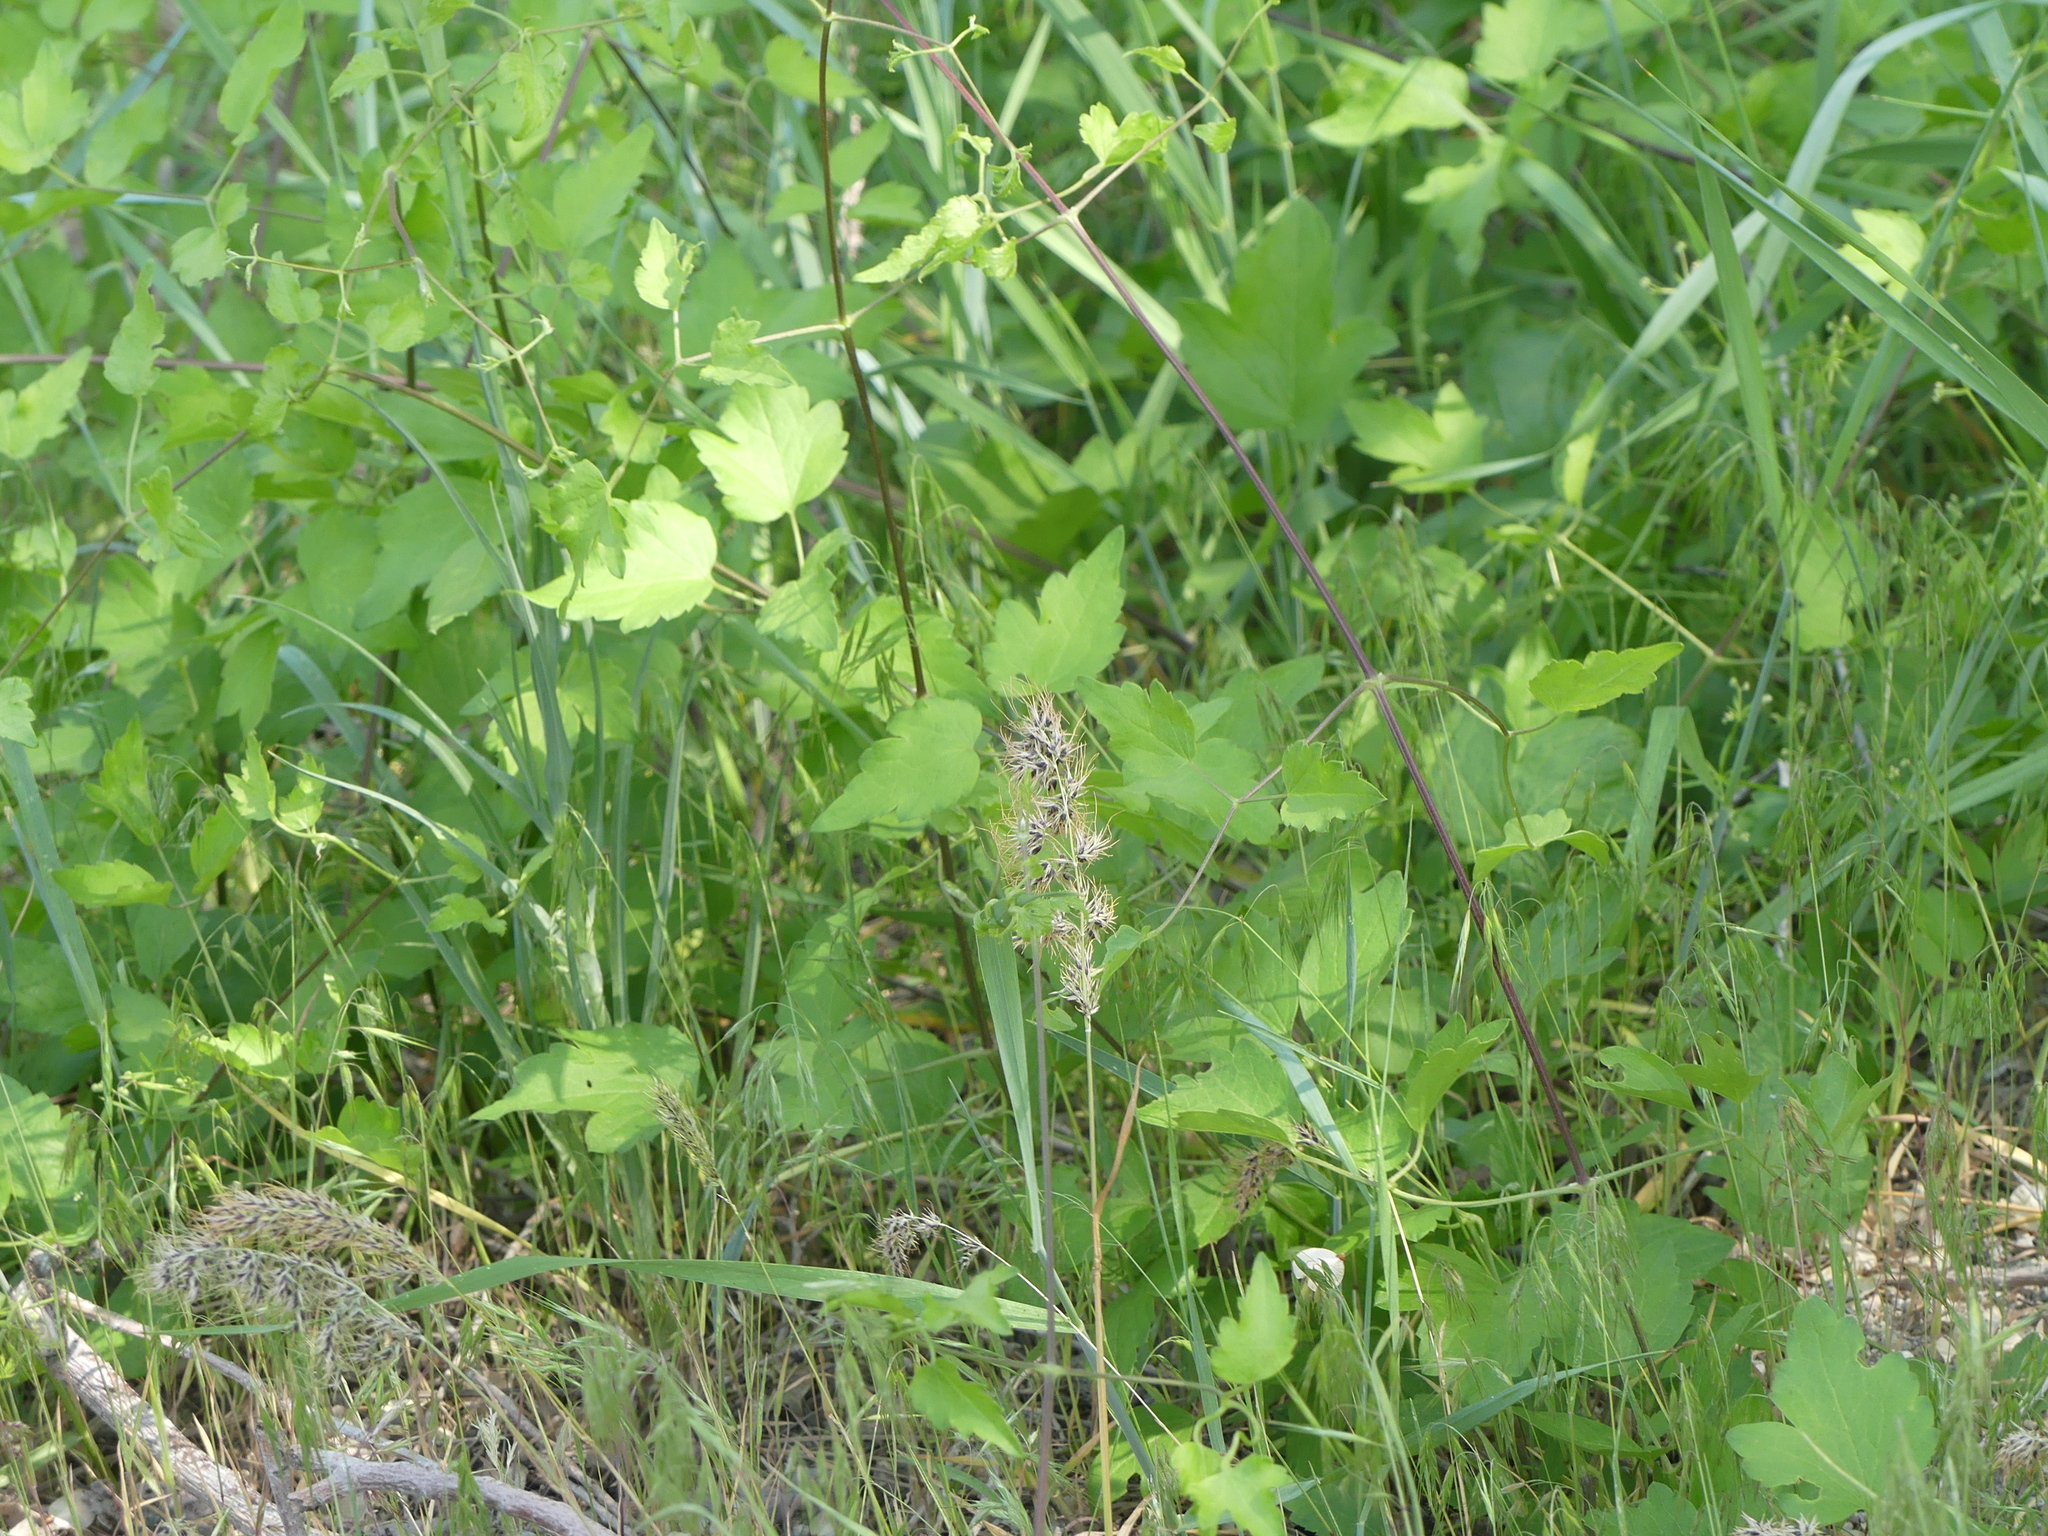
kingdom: Plantae
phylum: Tracheophyta
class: Liliopsida
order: Poales
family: Poaceae
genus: Poa
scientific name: Poa bulbosa
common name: Bulbous bluegrass
